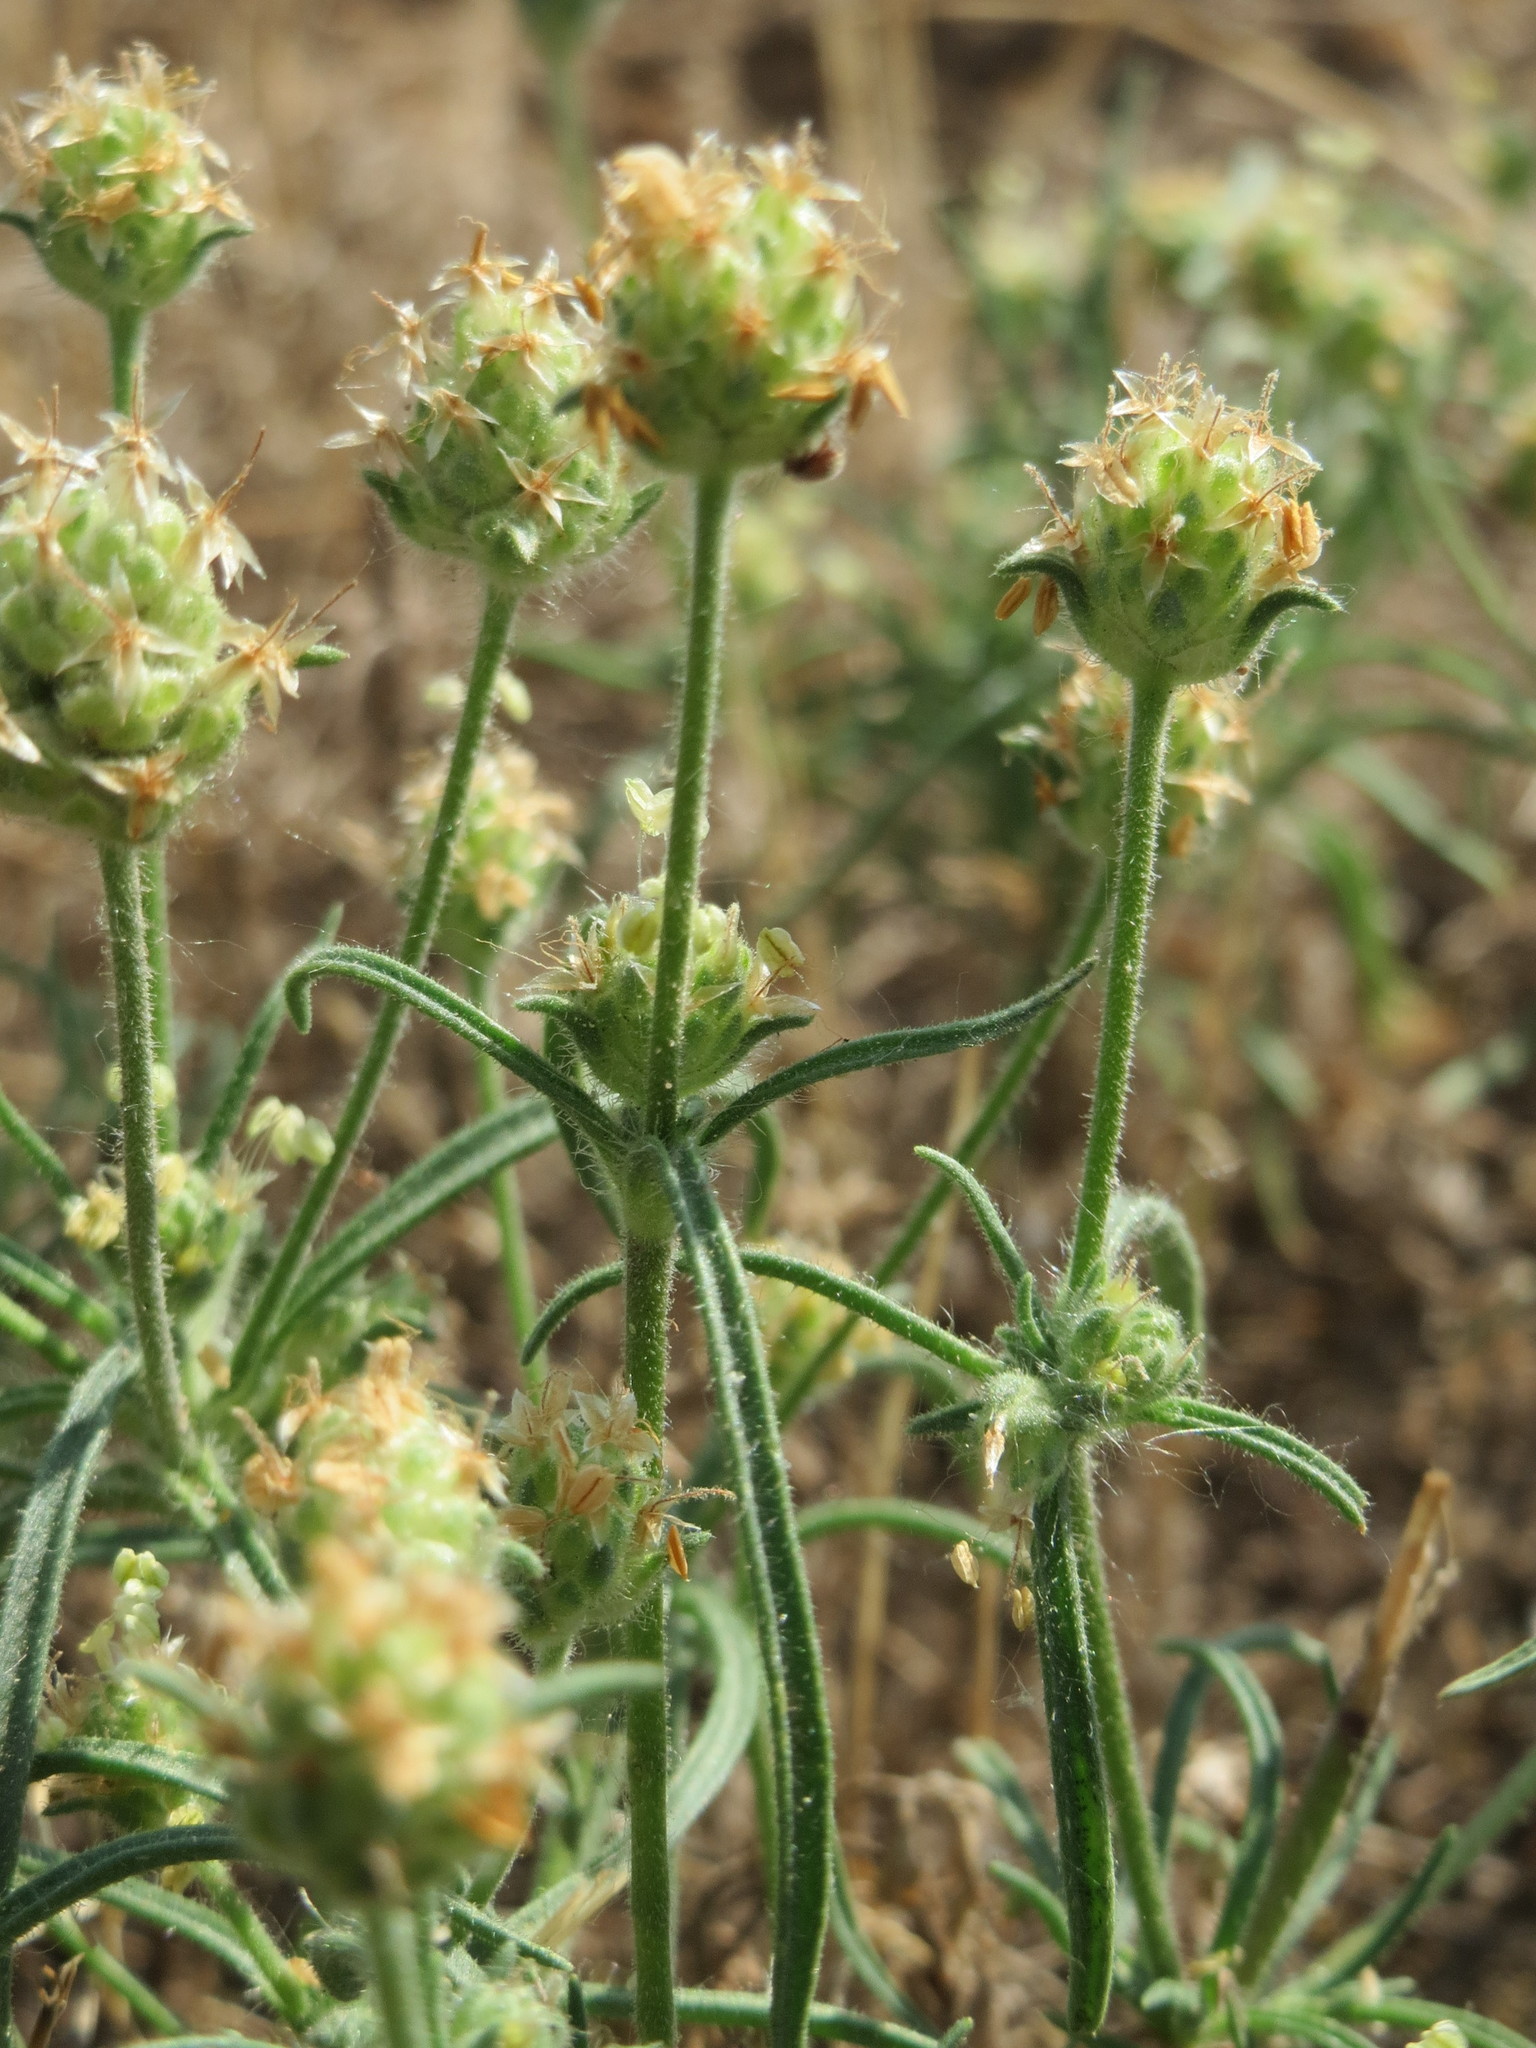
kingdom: Plantae
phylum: Tracheophyta
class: Magnoliopsida
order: Lamiales
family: Plantaginaceae
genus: Plantago
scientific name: Plantago arenaria
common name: Branched plantain
